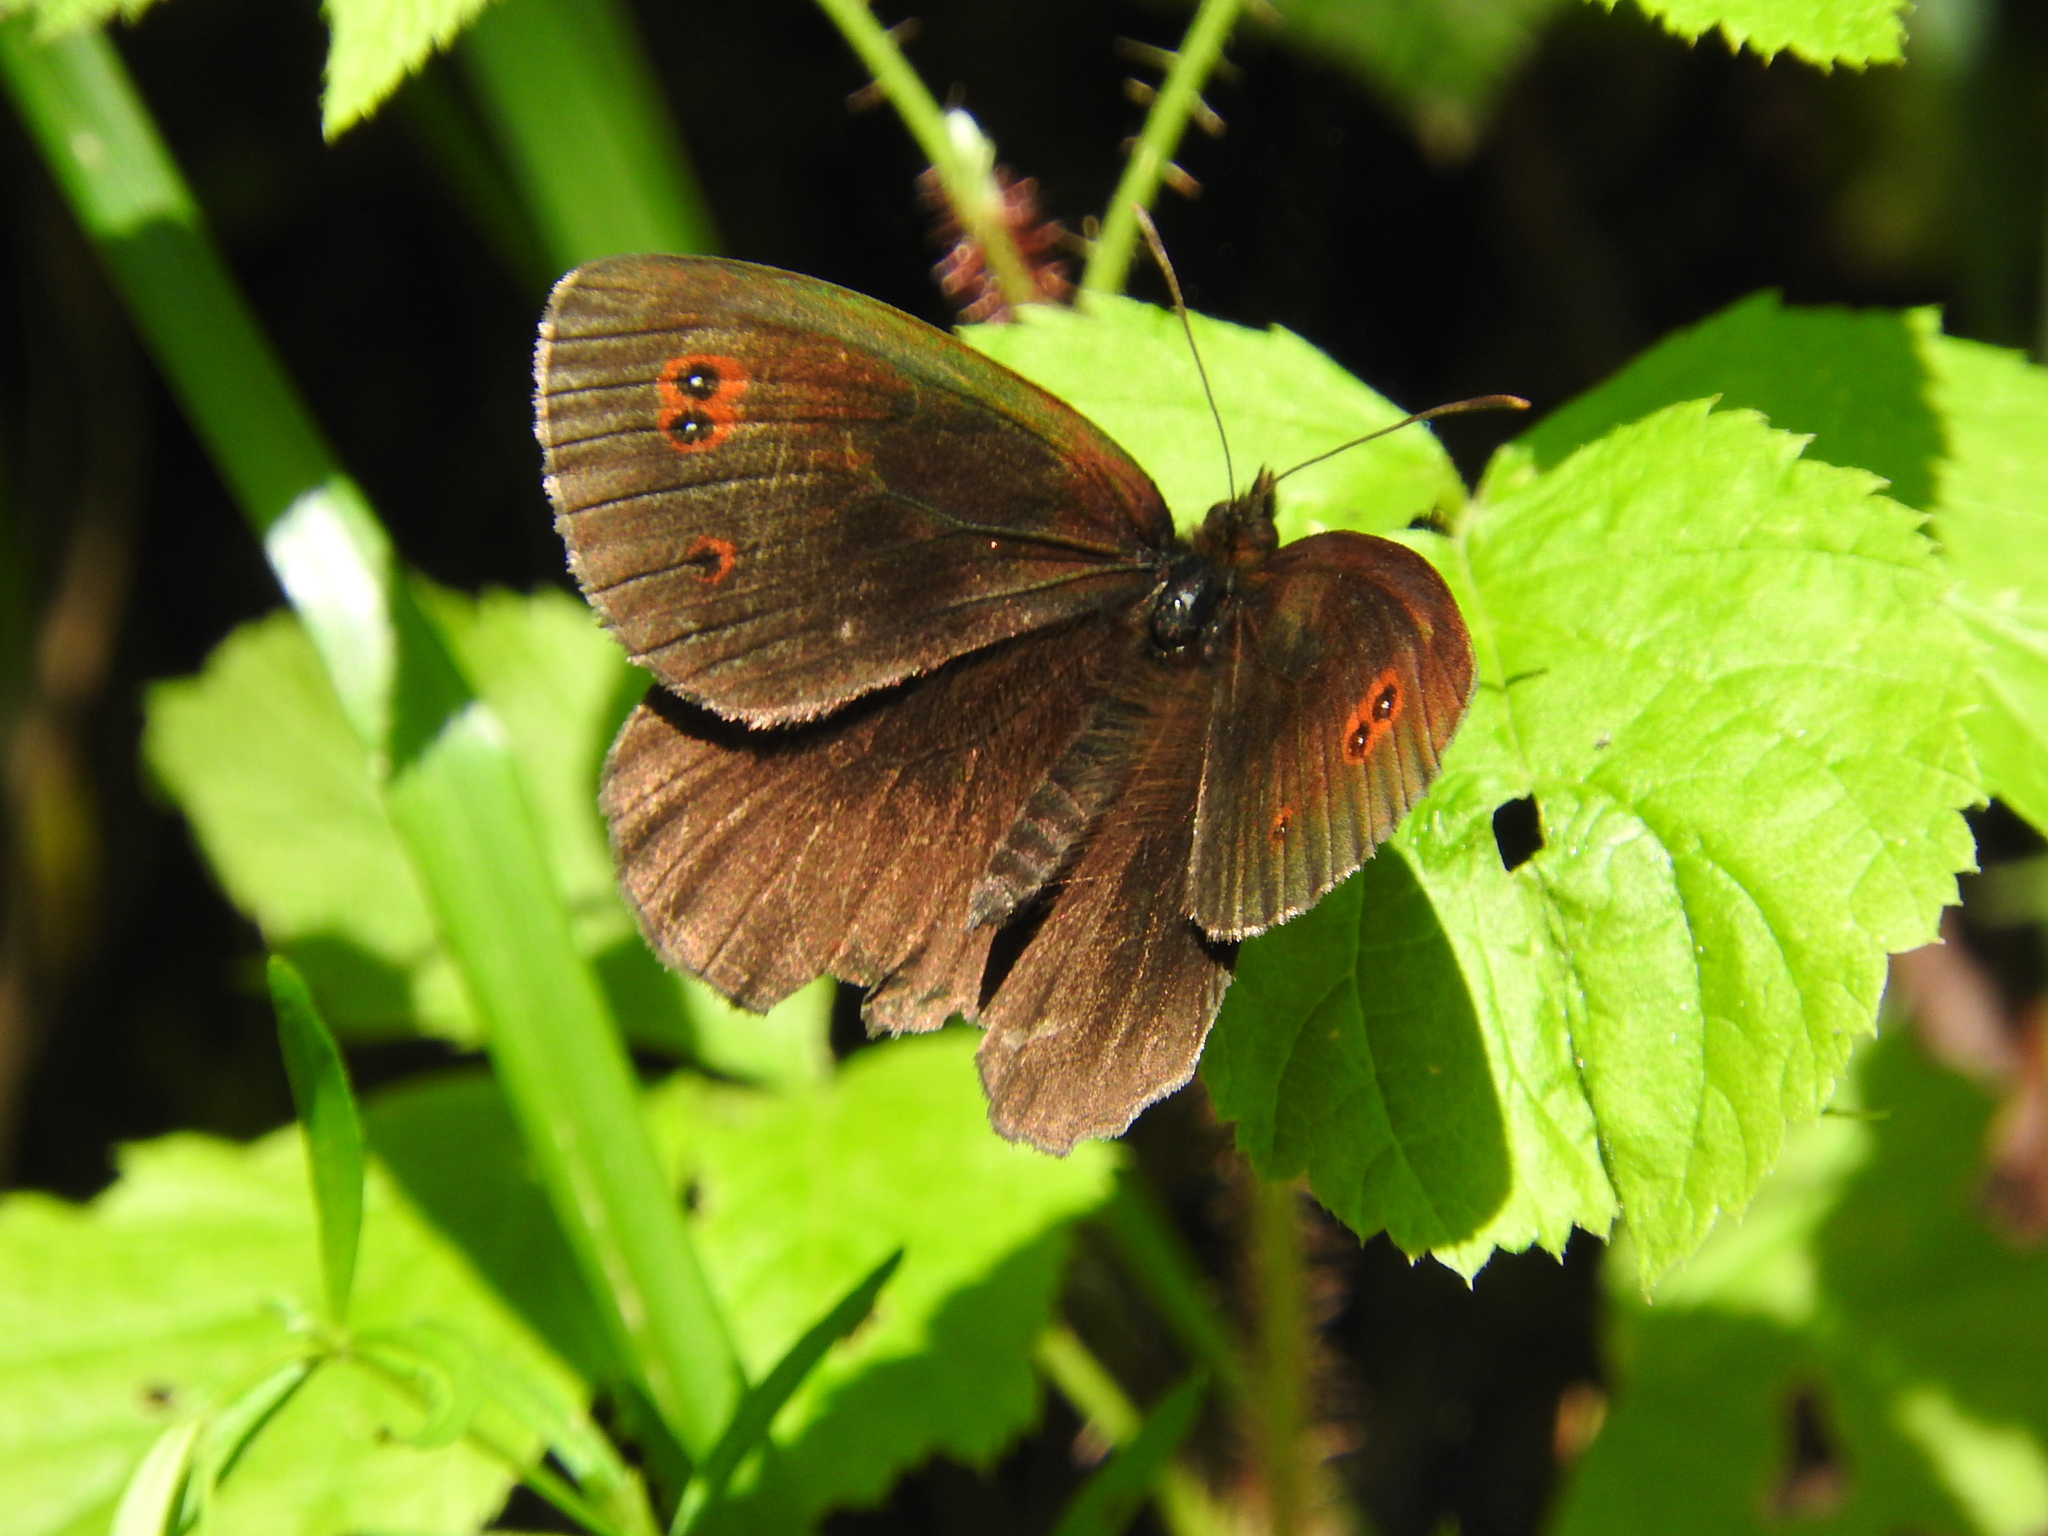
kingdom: Animalia
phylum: Arthropoda
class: Insecta
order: Lepidoptera
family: Nymphalidae
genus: Erebia
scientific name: Erebia aethiops
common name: Scotch argus
